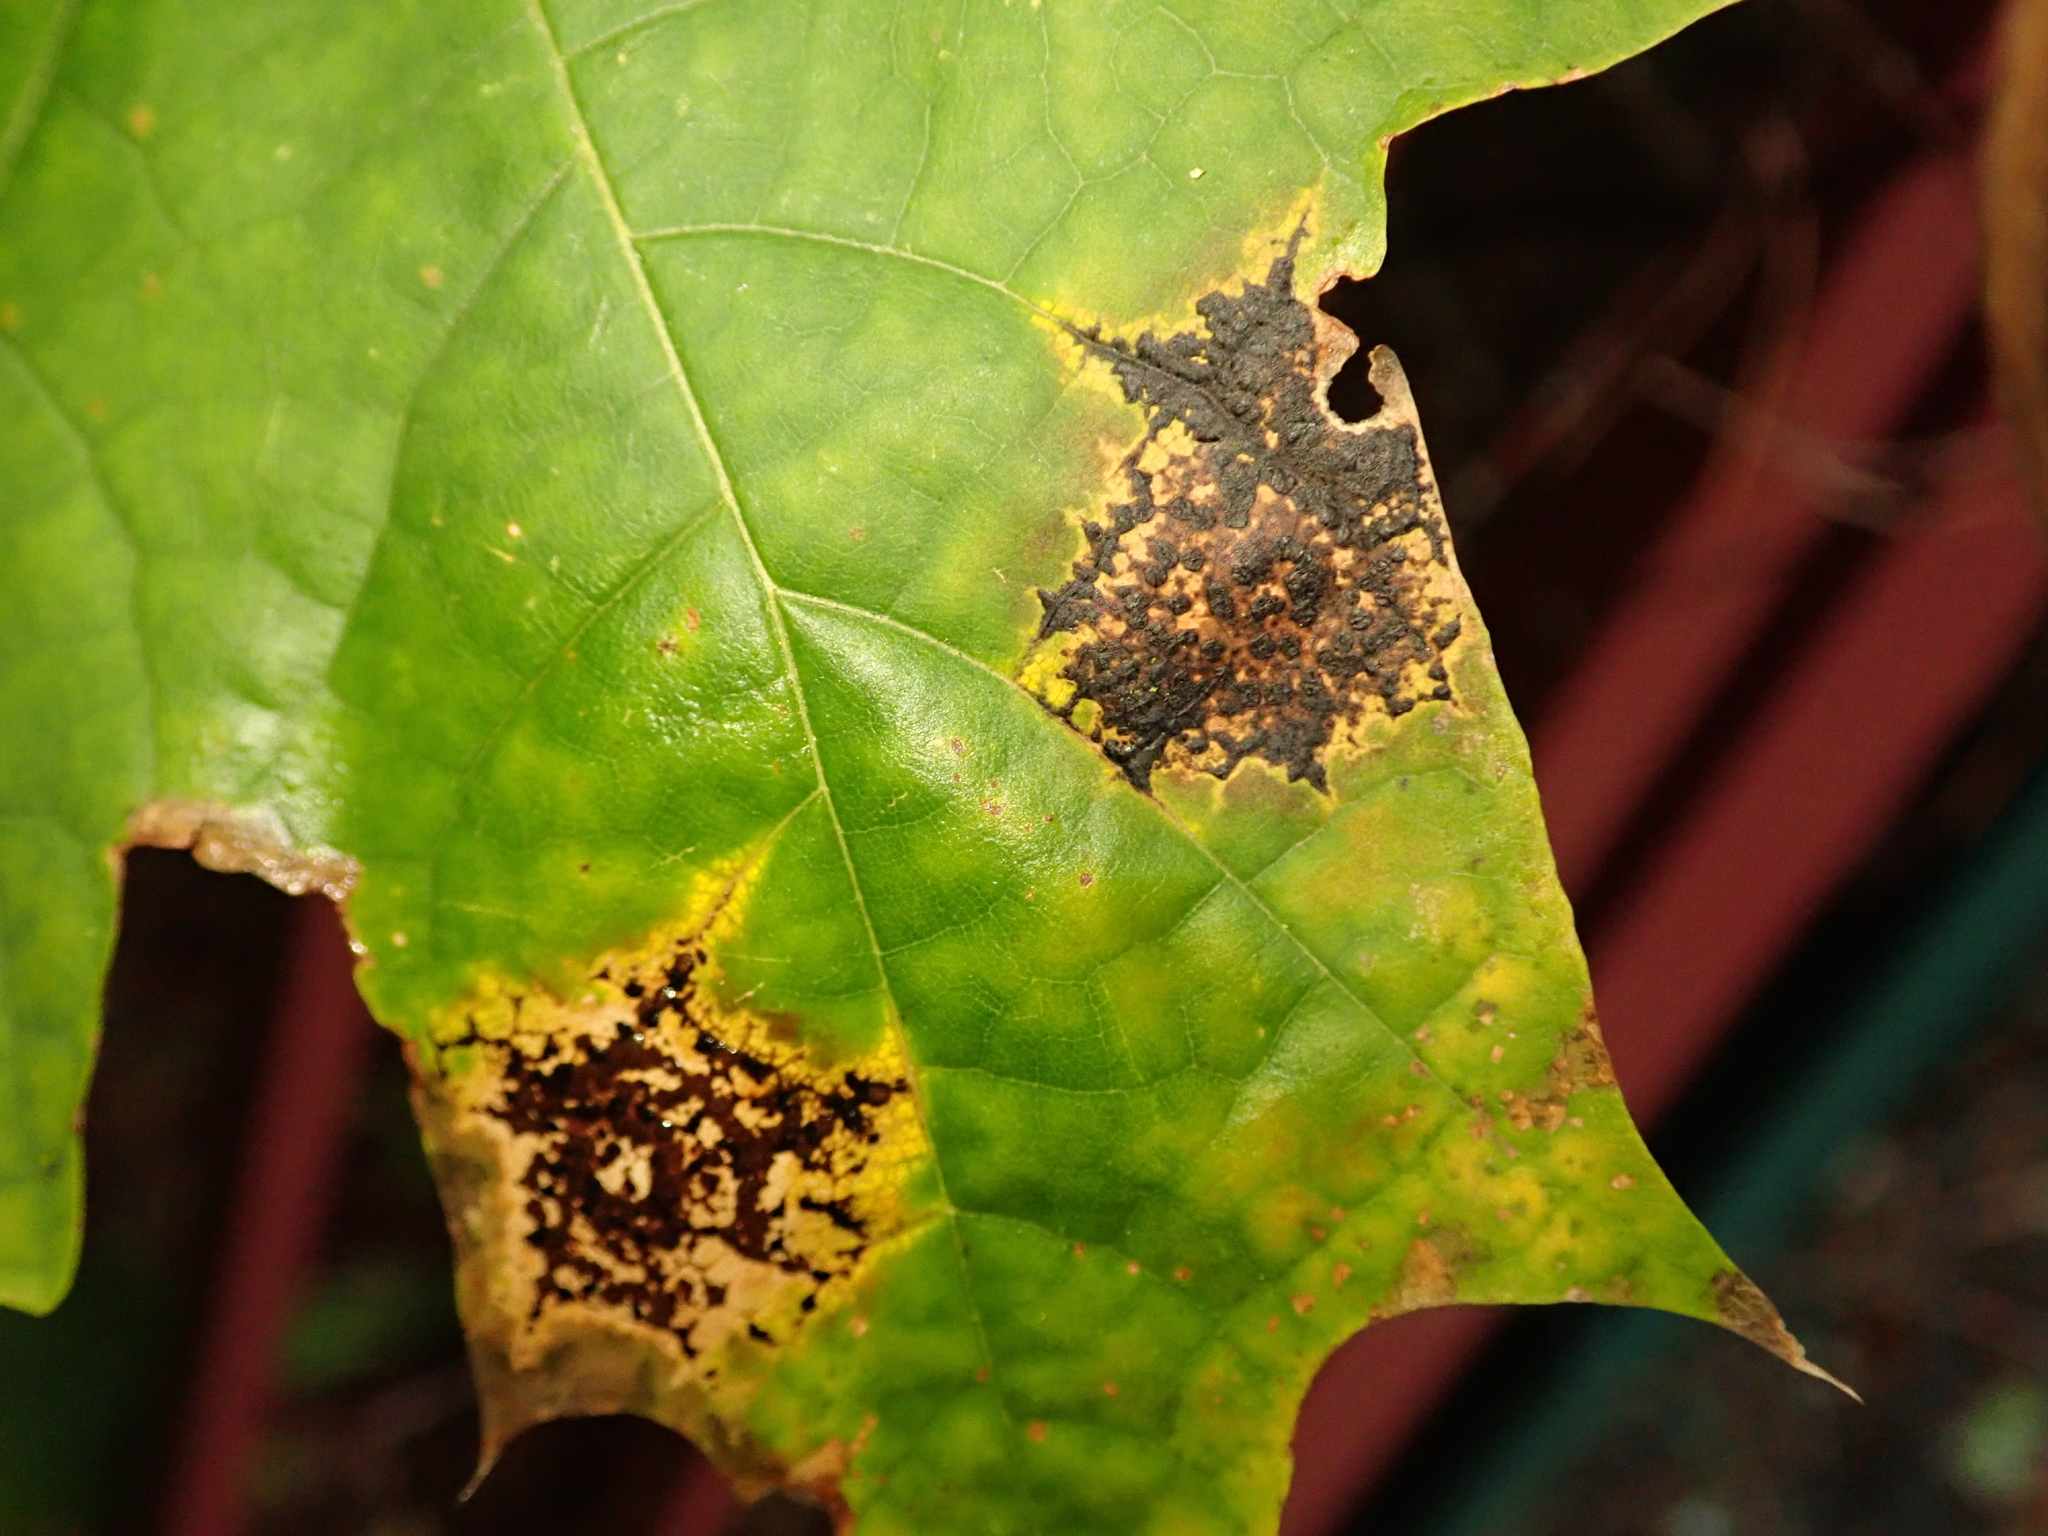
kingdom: Fungi
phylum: Ascomycota
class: Leotiomycetes
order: Rhytismatales
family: Rhytismataceae
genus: Rhytisma
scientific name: Rhytisma acerinum
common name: European tar spot
